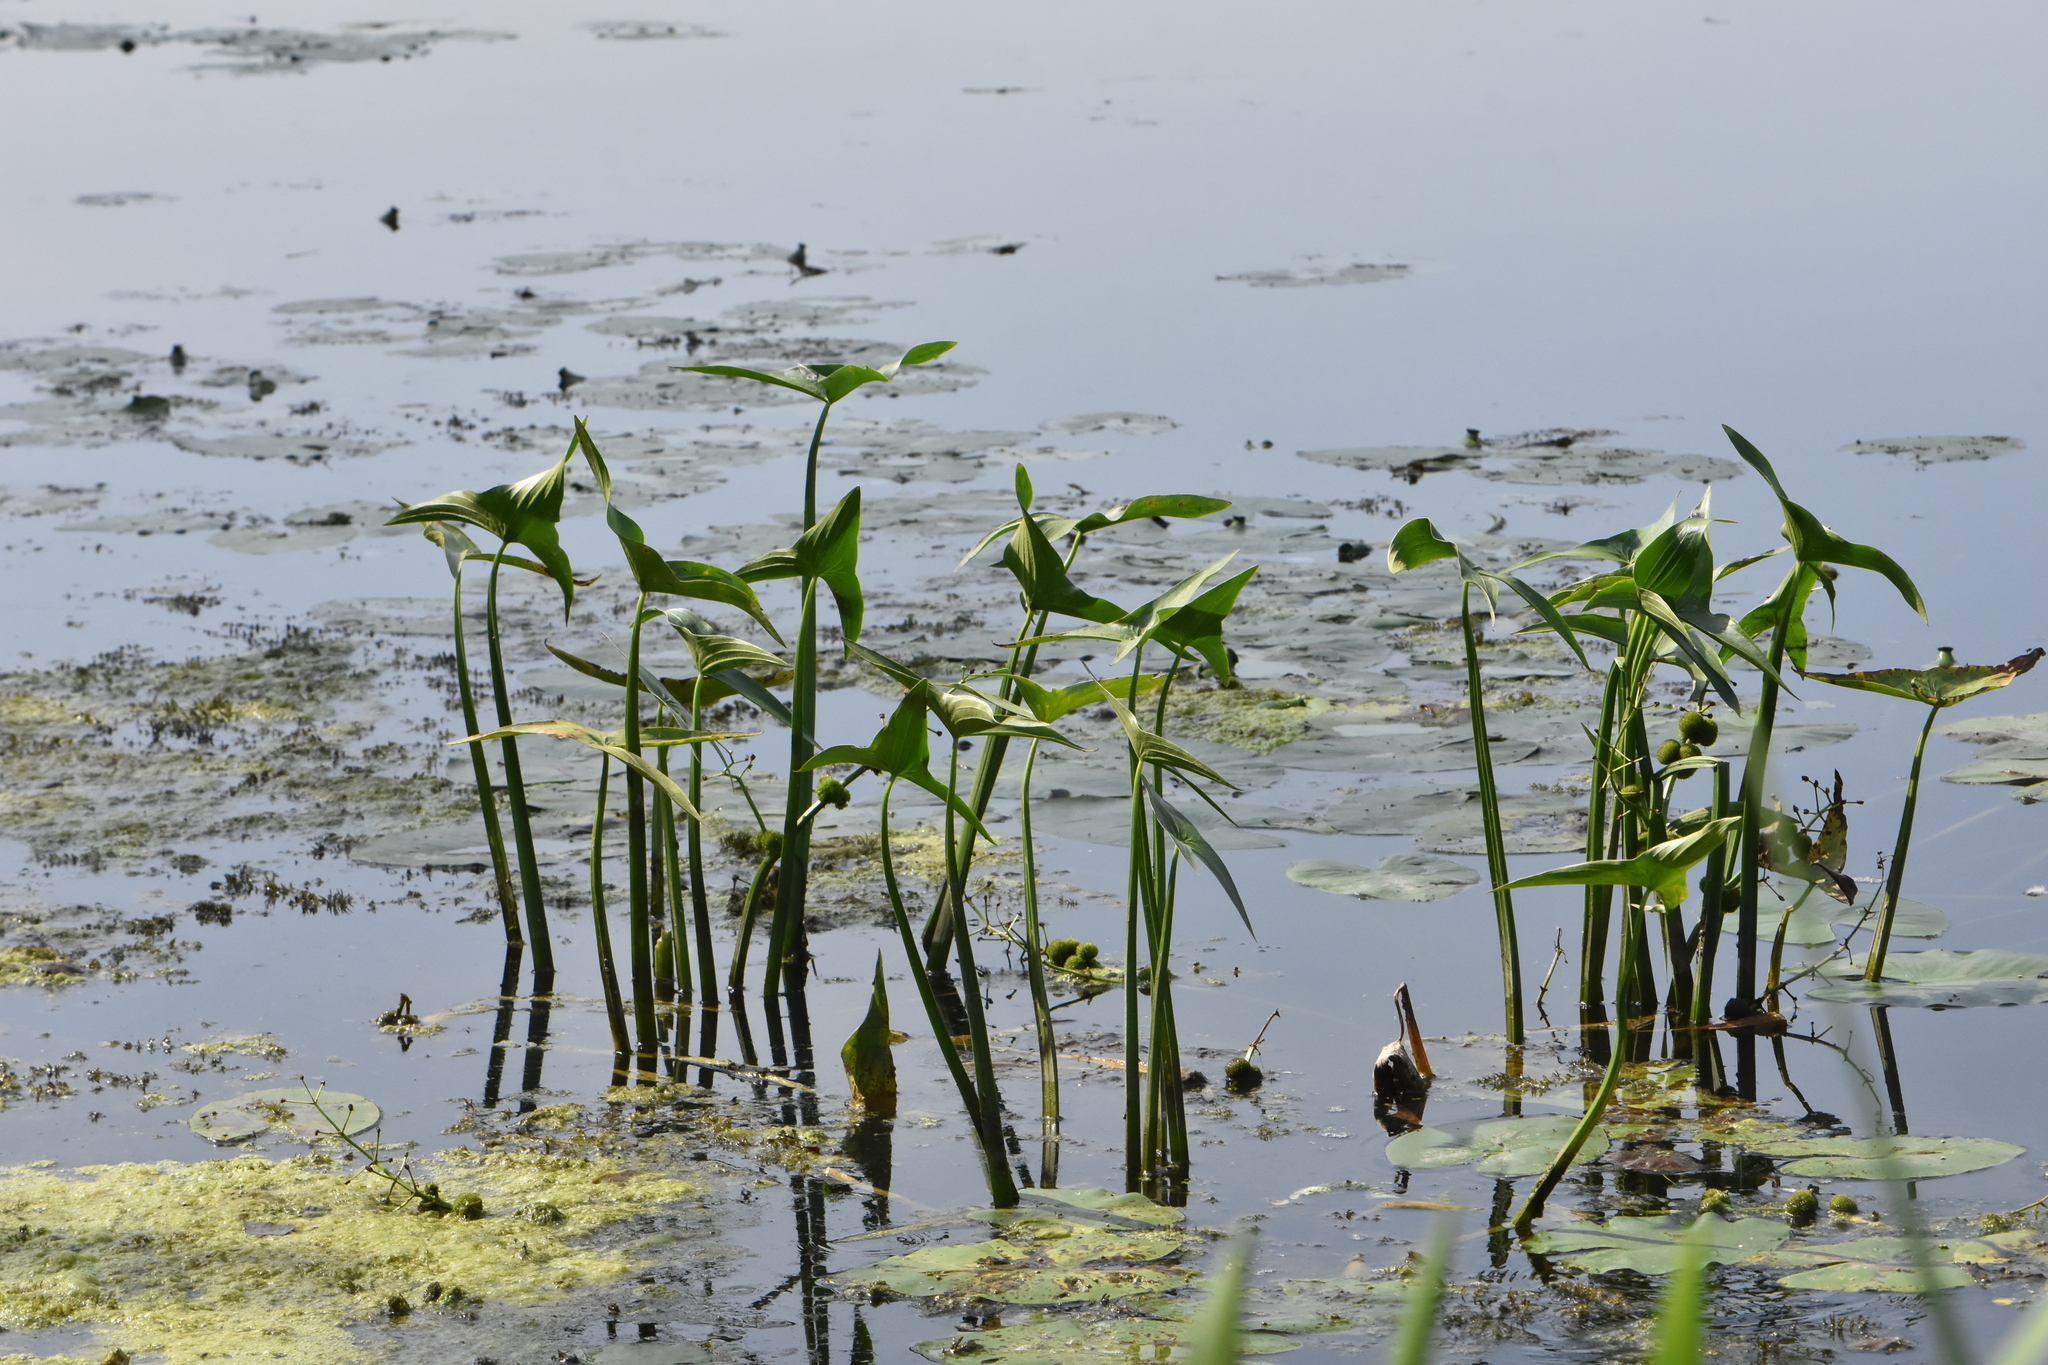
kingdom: Plantae
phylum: Tracheophyta
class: Liliopsida
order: Alismatales
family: Alismataceae
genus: Sagittaria
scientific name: Sagittaria sagittifolia
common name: Arrowhead
